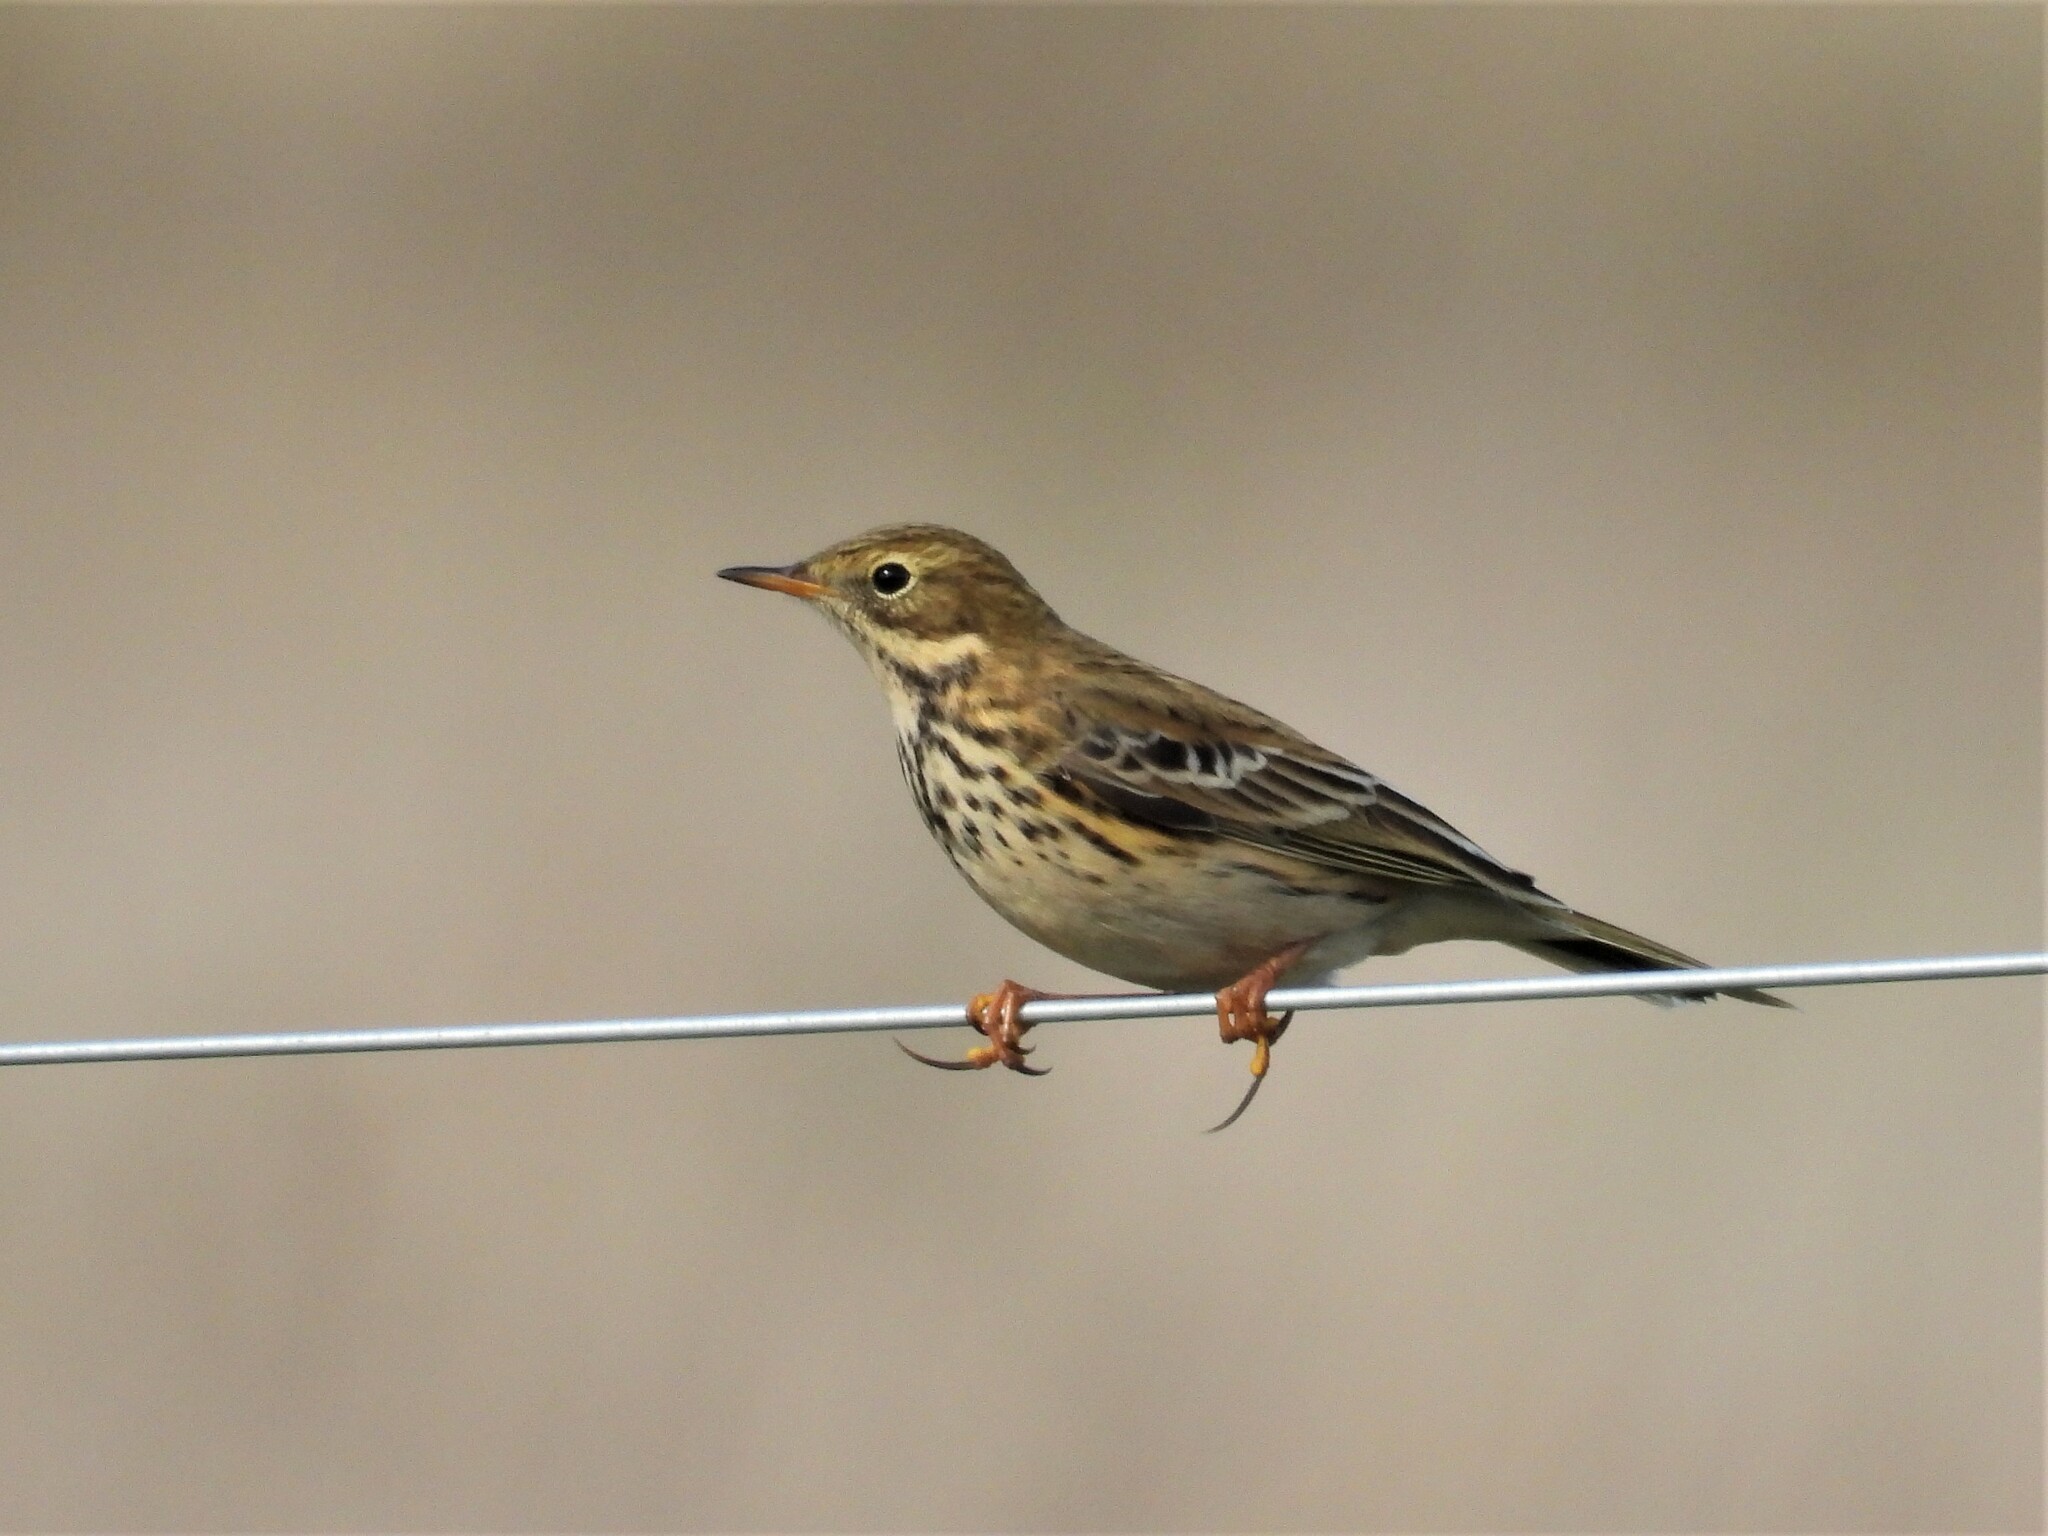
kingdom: Animalia
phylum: Chordata
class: Aves
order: Passeriformes
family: Motacillidae
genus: Anthus
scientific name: Anthus pratensis
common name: Meadow pipit
